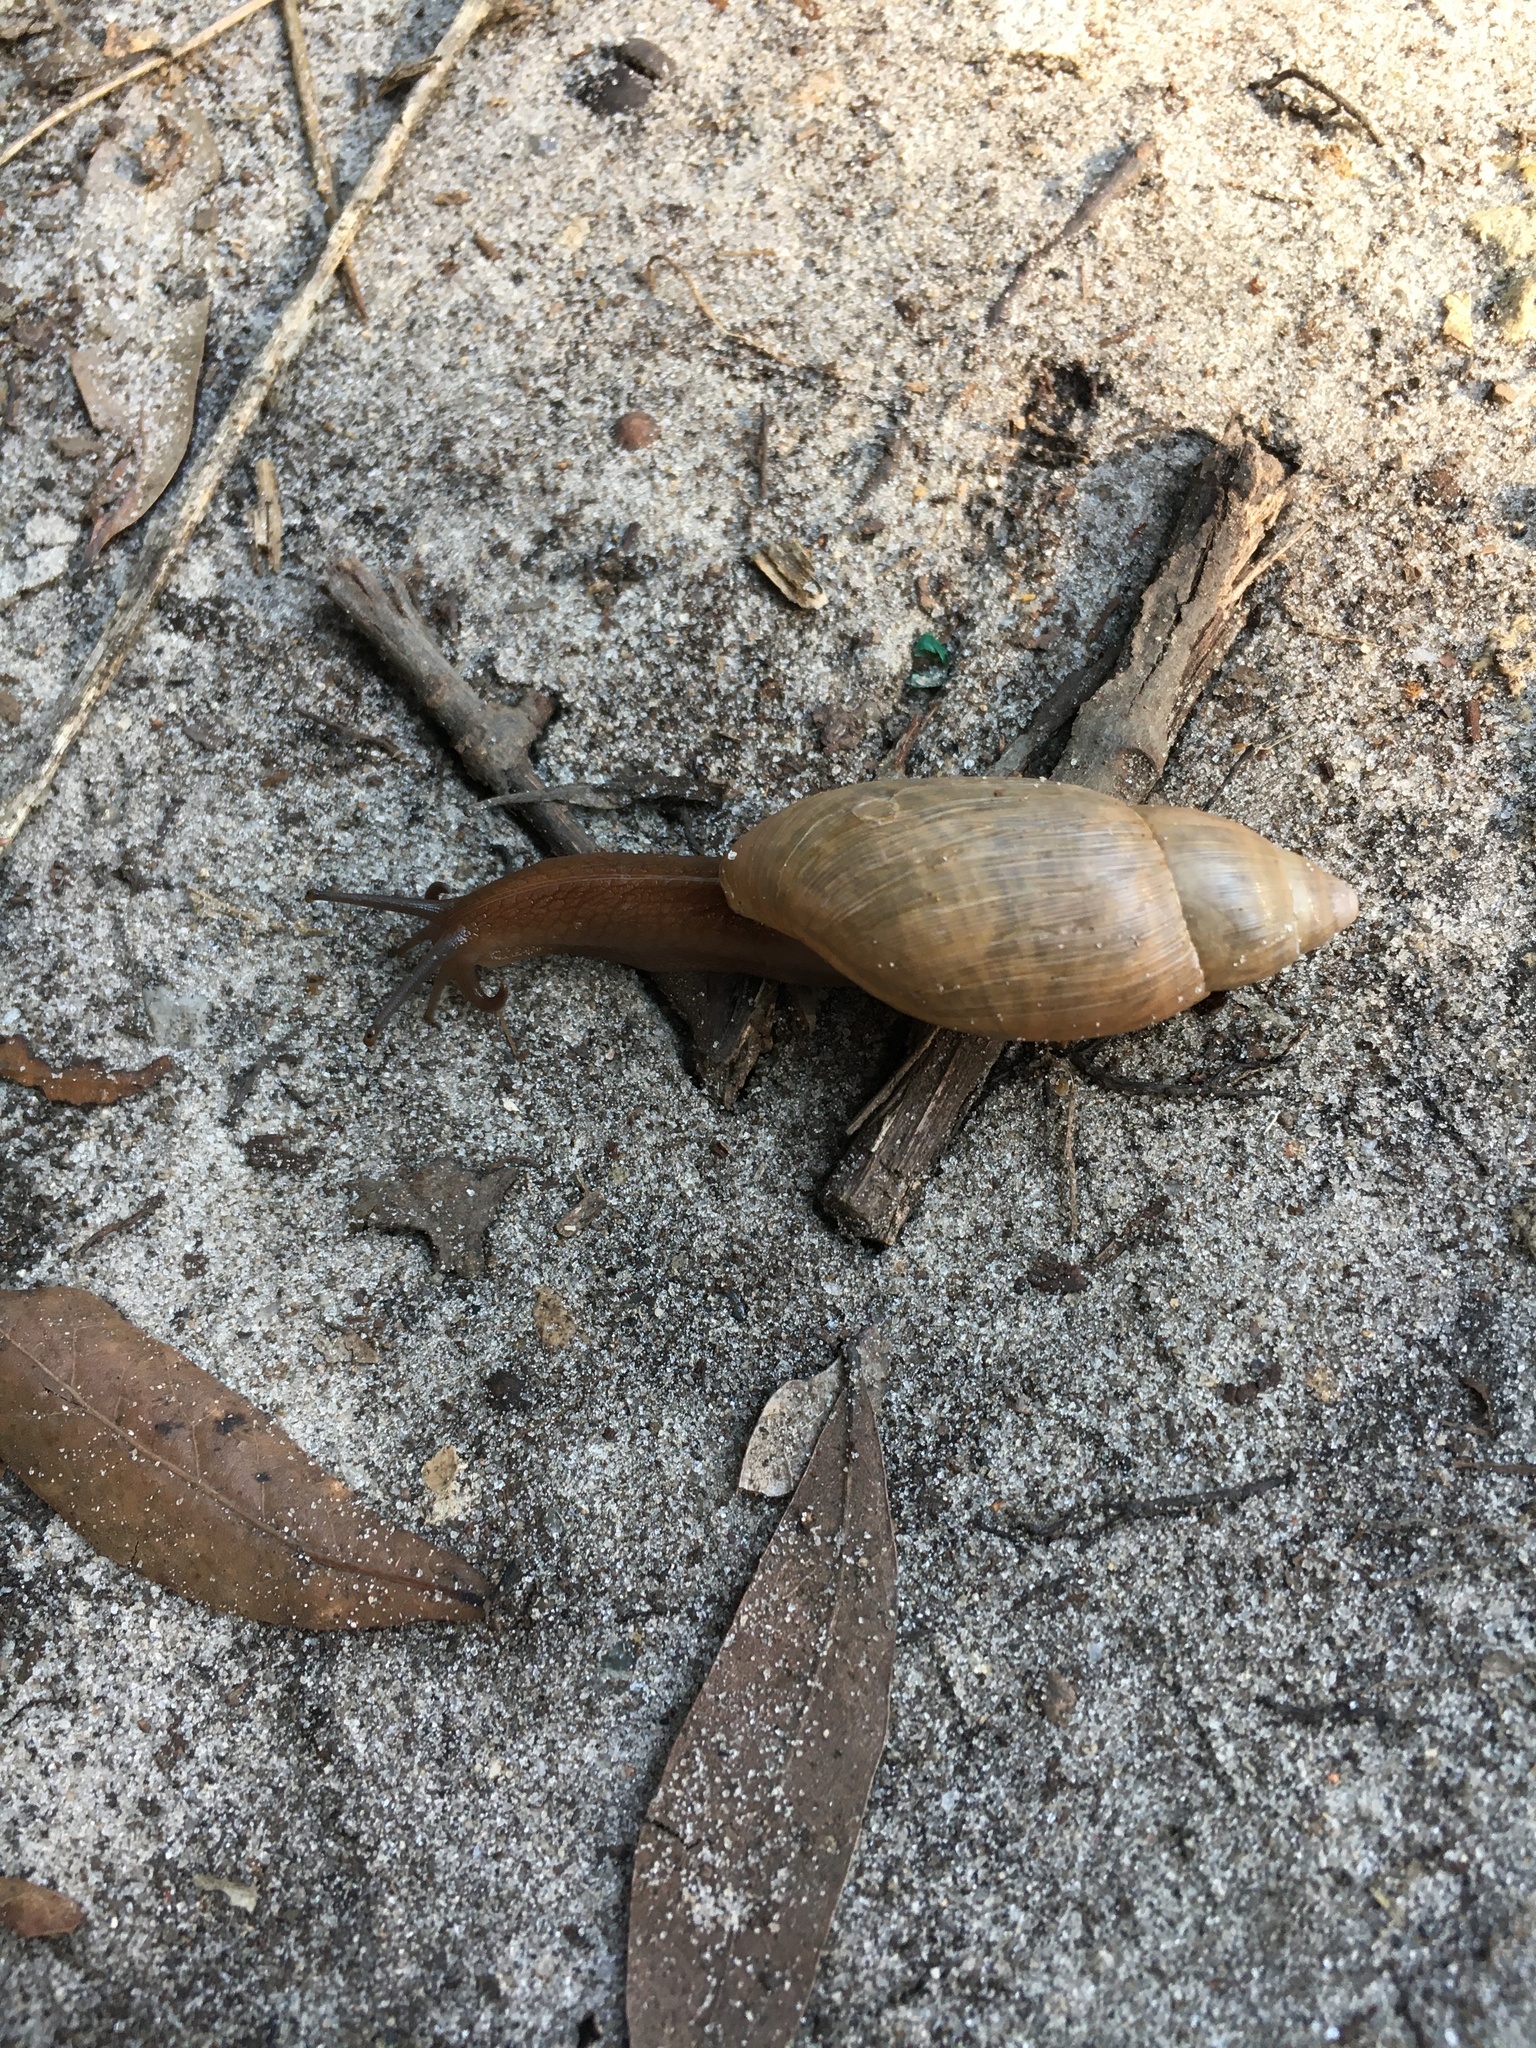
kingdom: Animalia
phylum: Mollusca
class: Gastropoda
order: Stylommatophora
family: Spiraxidae
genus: Euglandina
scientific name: Euglandina rosea
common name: Rosy wolfsnail
